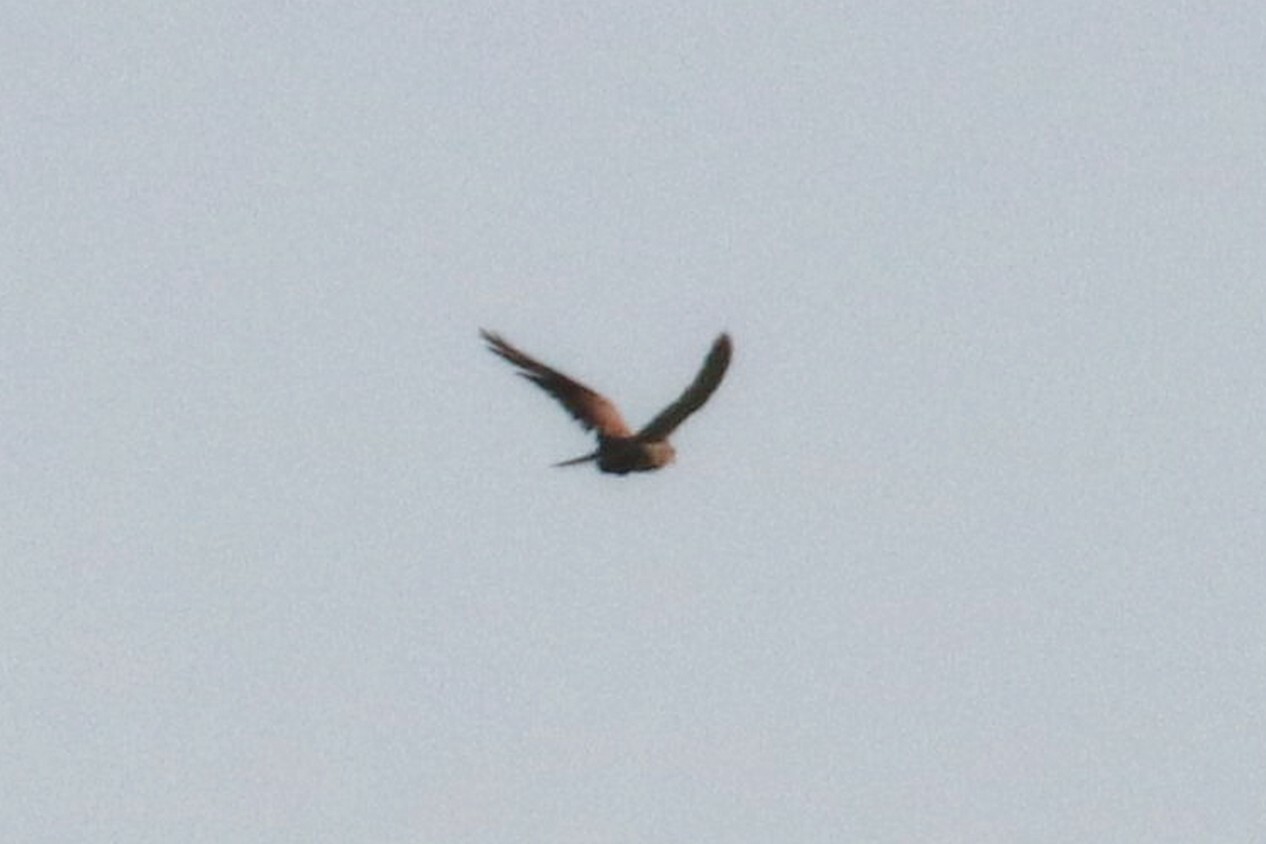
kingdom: Animalia
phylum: Chordata
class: Aves
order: Falconiformes
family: Falconidae
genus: Falco
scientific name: Falco tinnunculus
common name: Common kestrel
